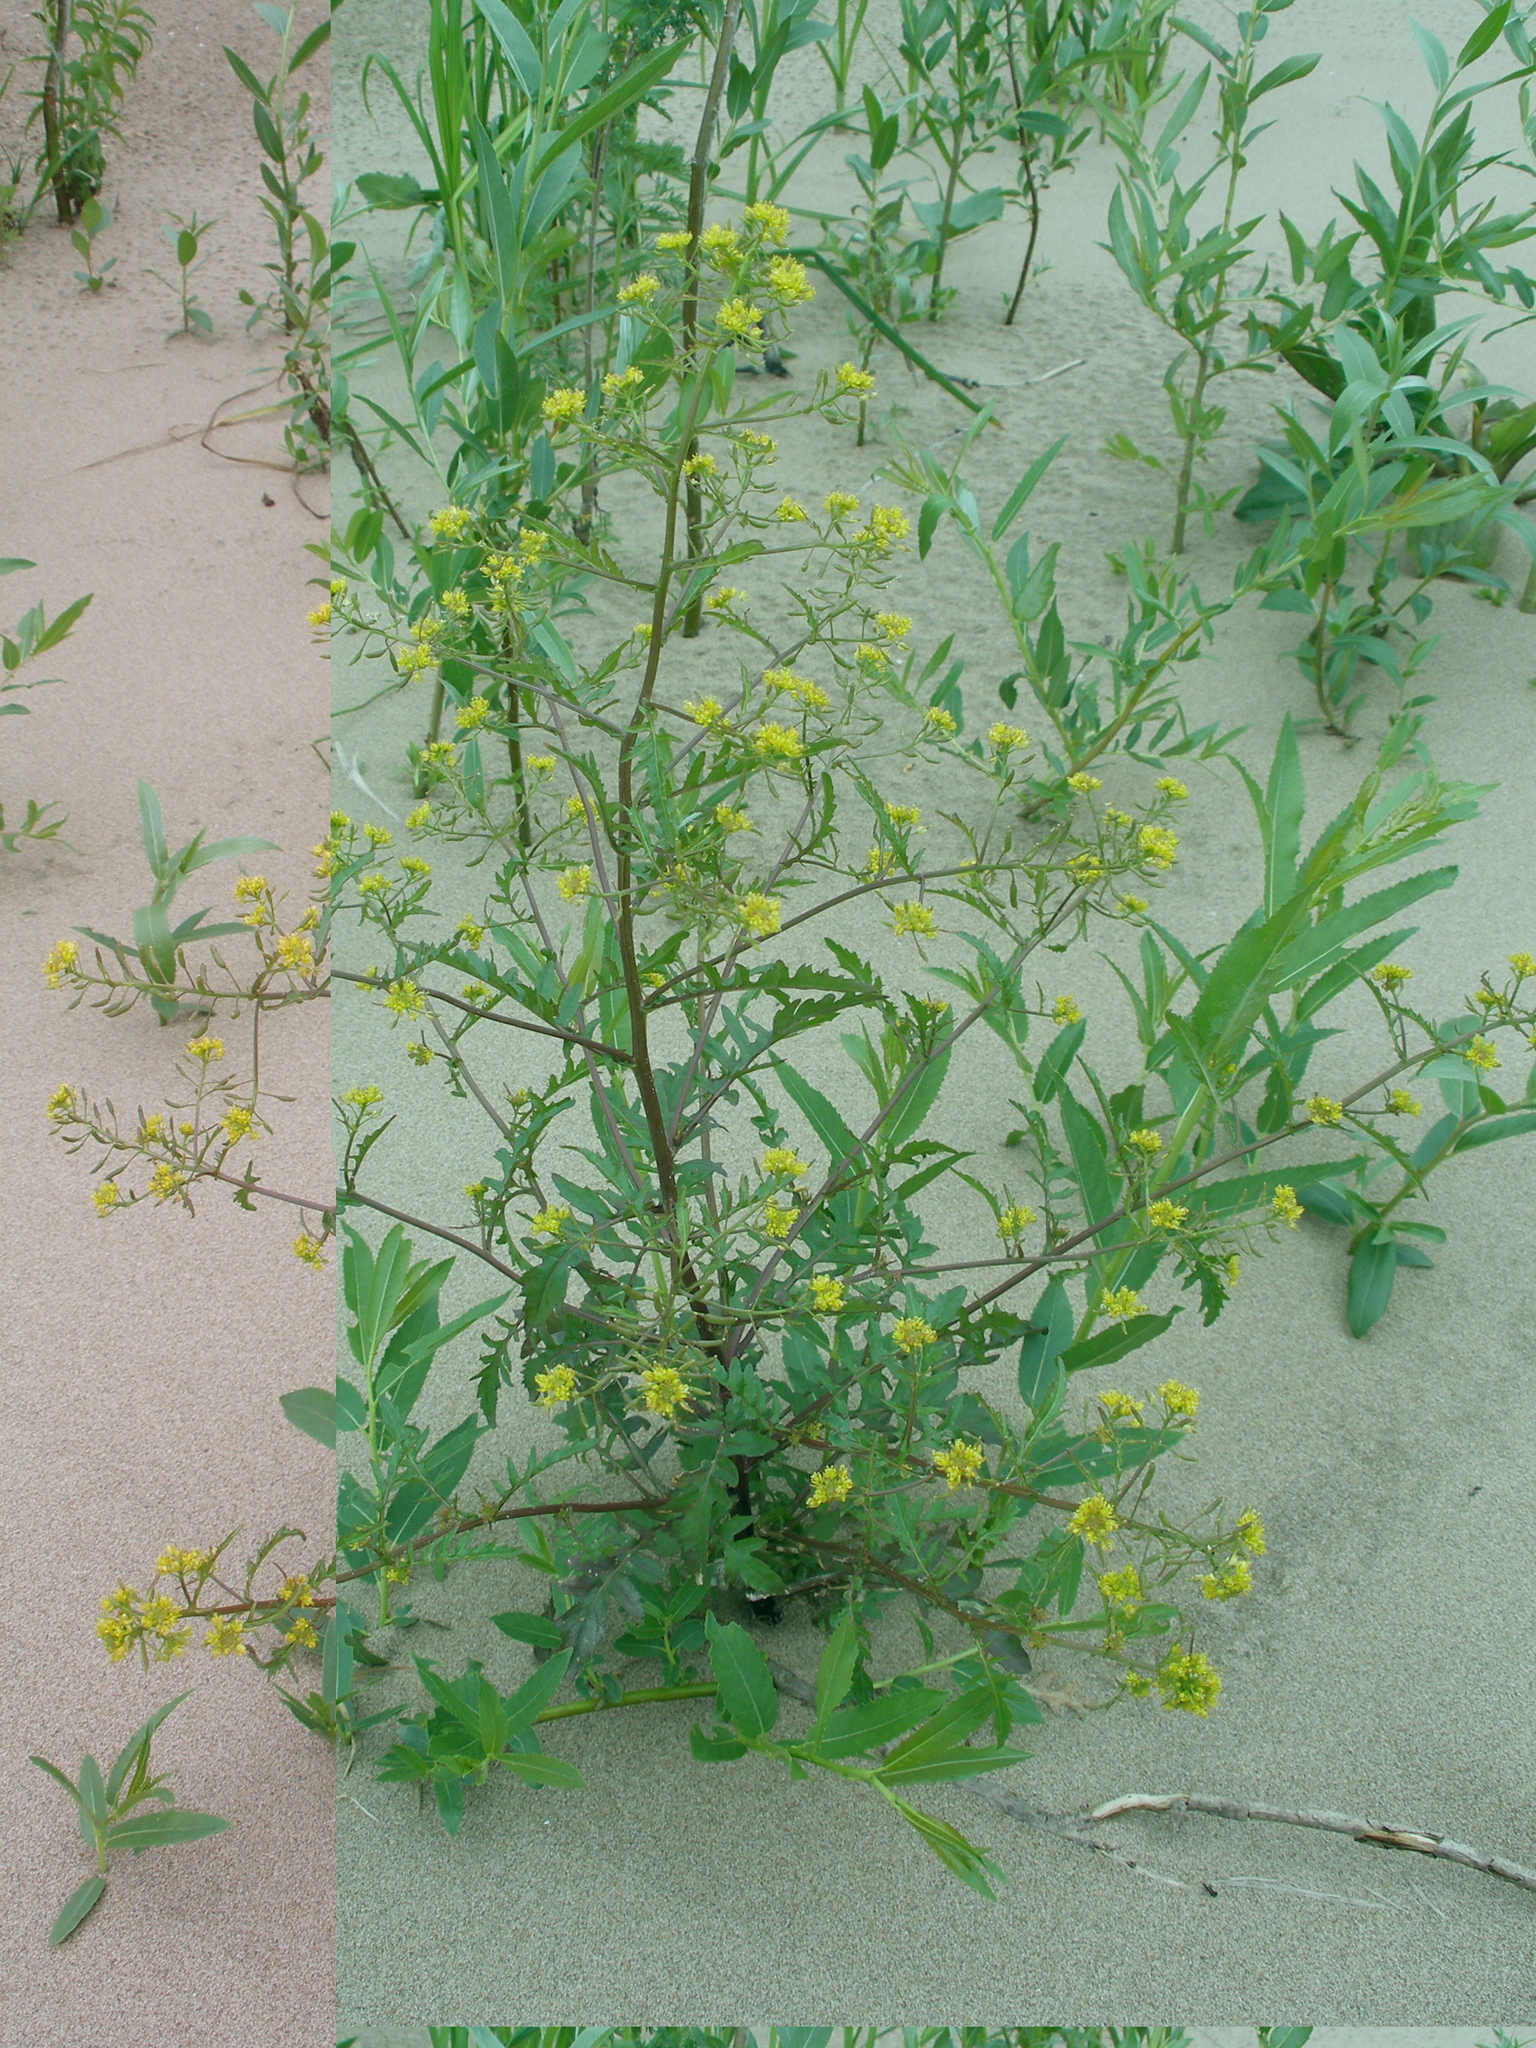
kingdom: Plantae
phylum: Tracheophyta
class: Magnoliopsida
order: Brassicales
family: Brassicaceae
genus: Rorippa
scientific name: Rorippa palustris
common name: Marsh yellow-cress
